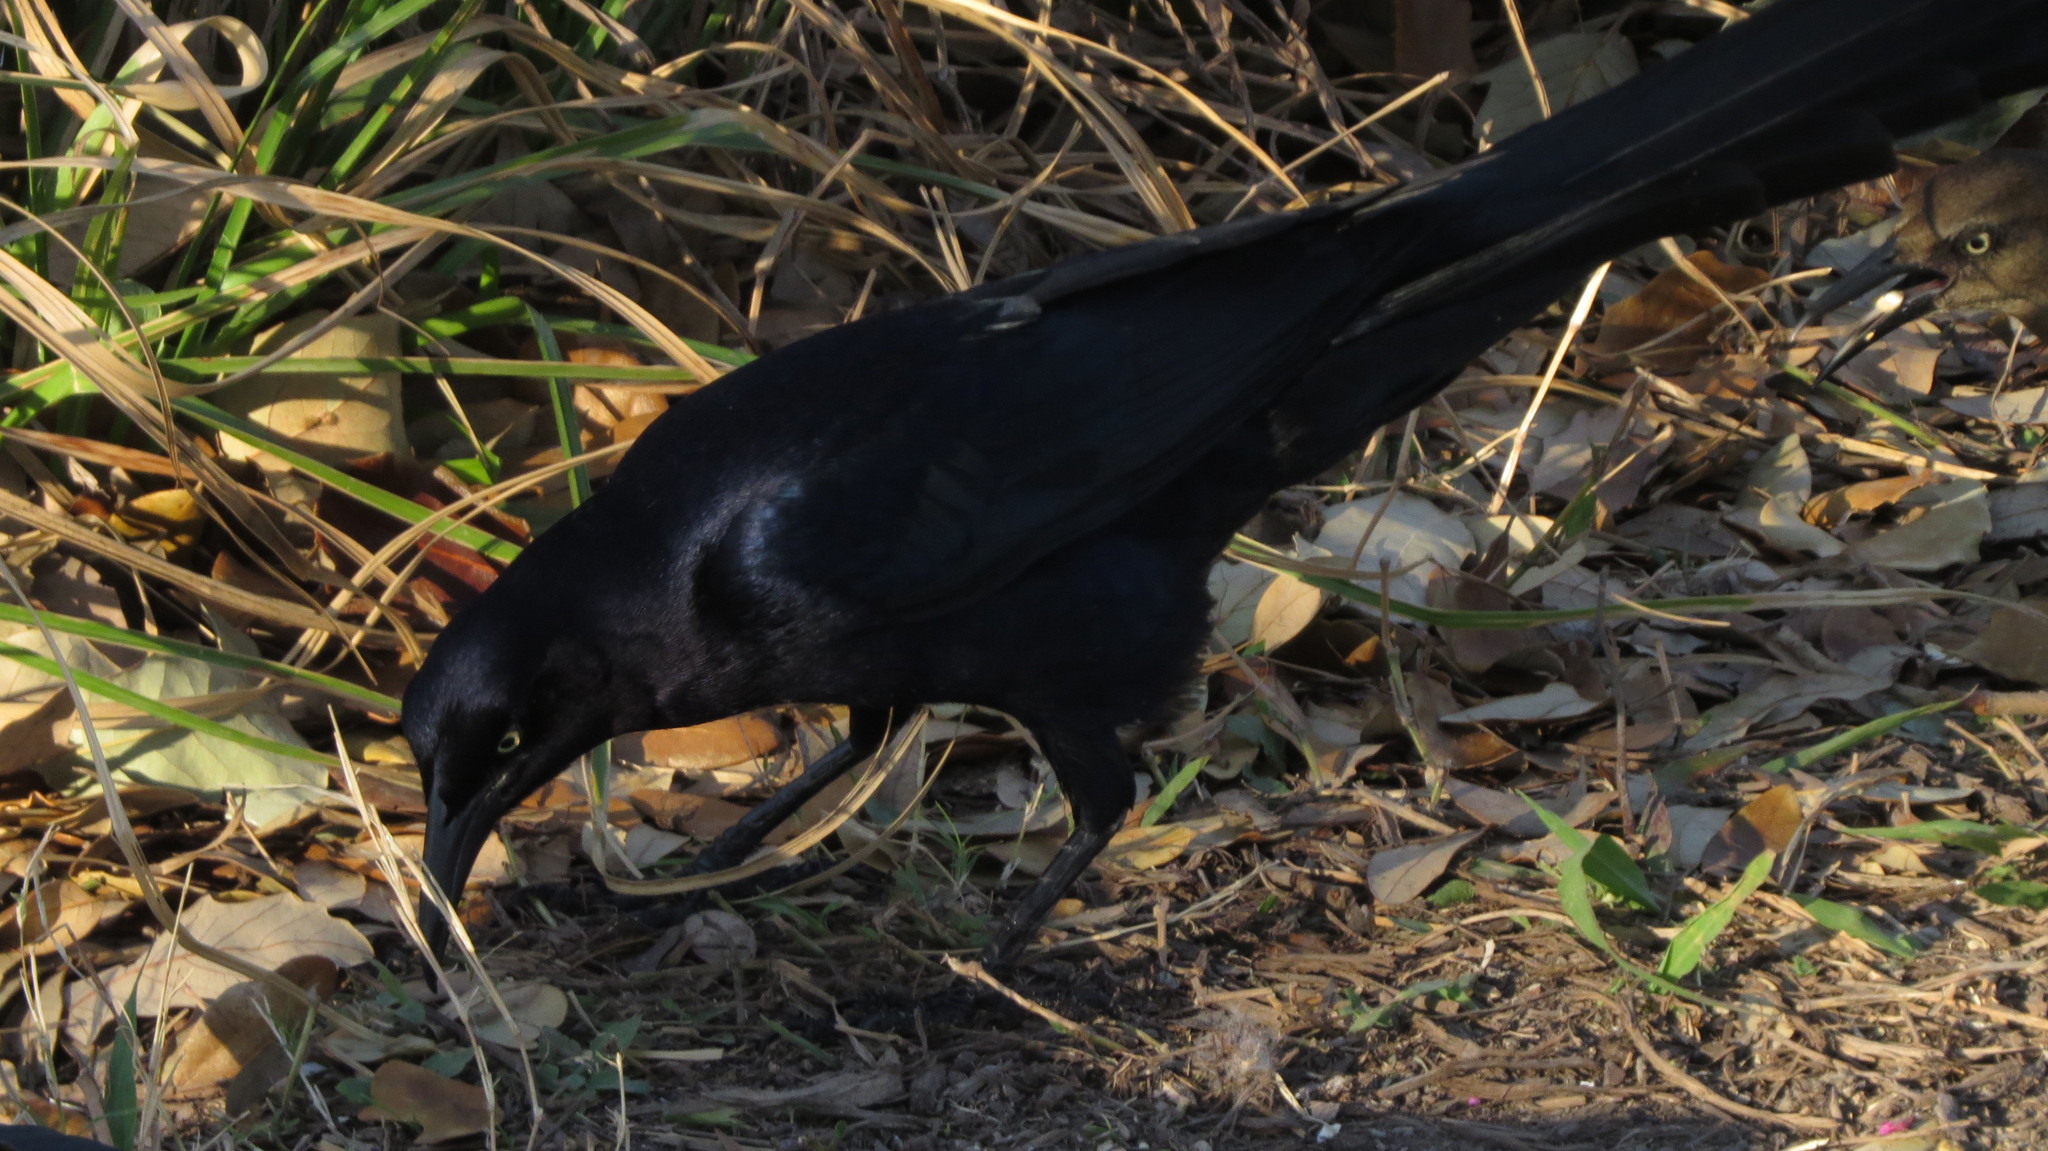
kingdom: Animalia
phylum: Chordata
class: Aves
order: Passeriformes
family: Icteridae
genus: Quiscalus
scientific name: Quiscalus mexicanus
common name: Great-tailed grackle
